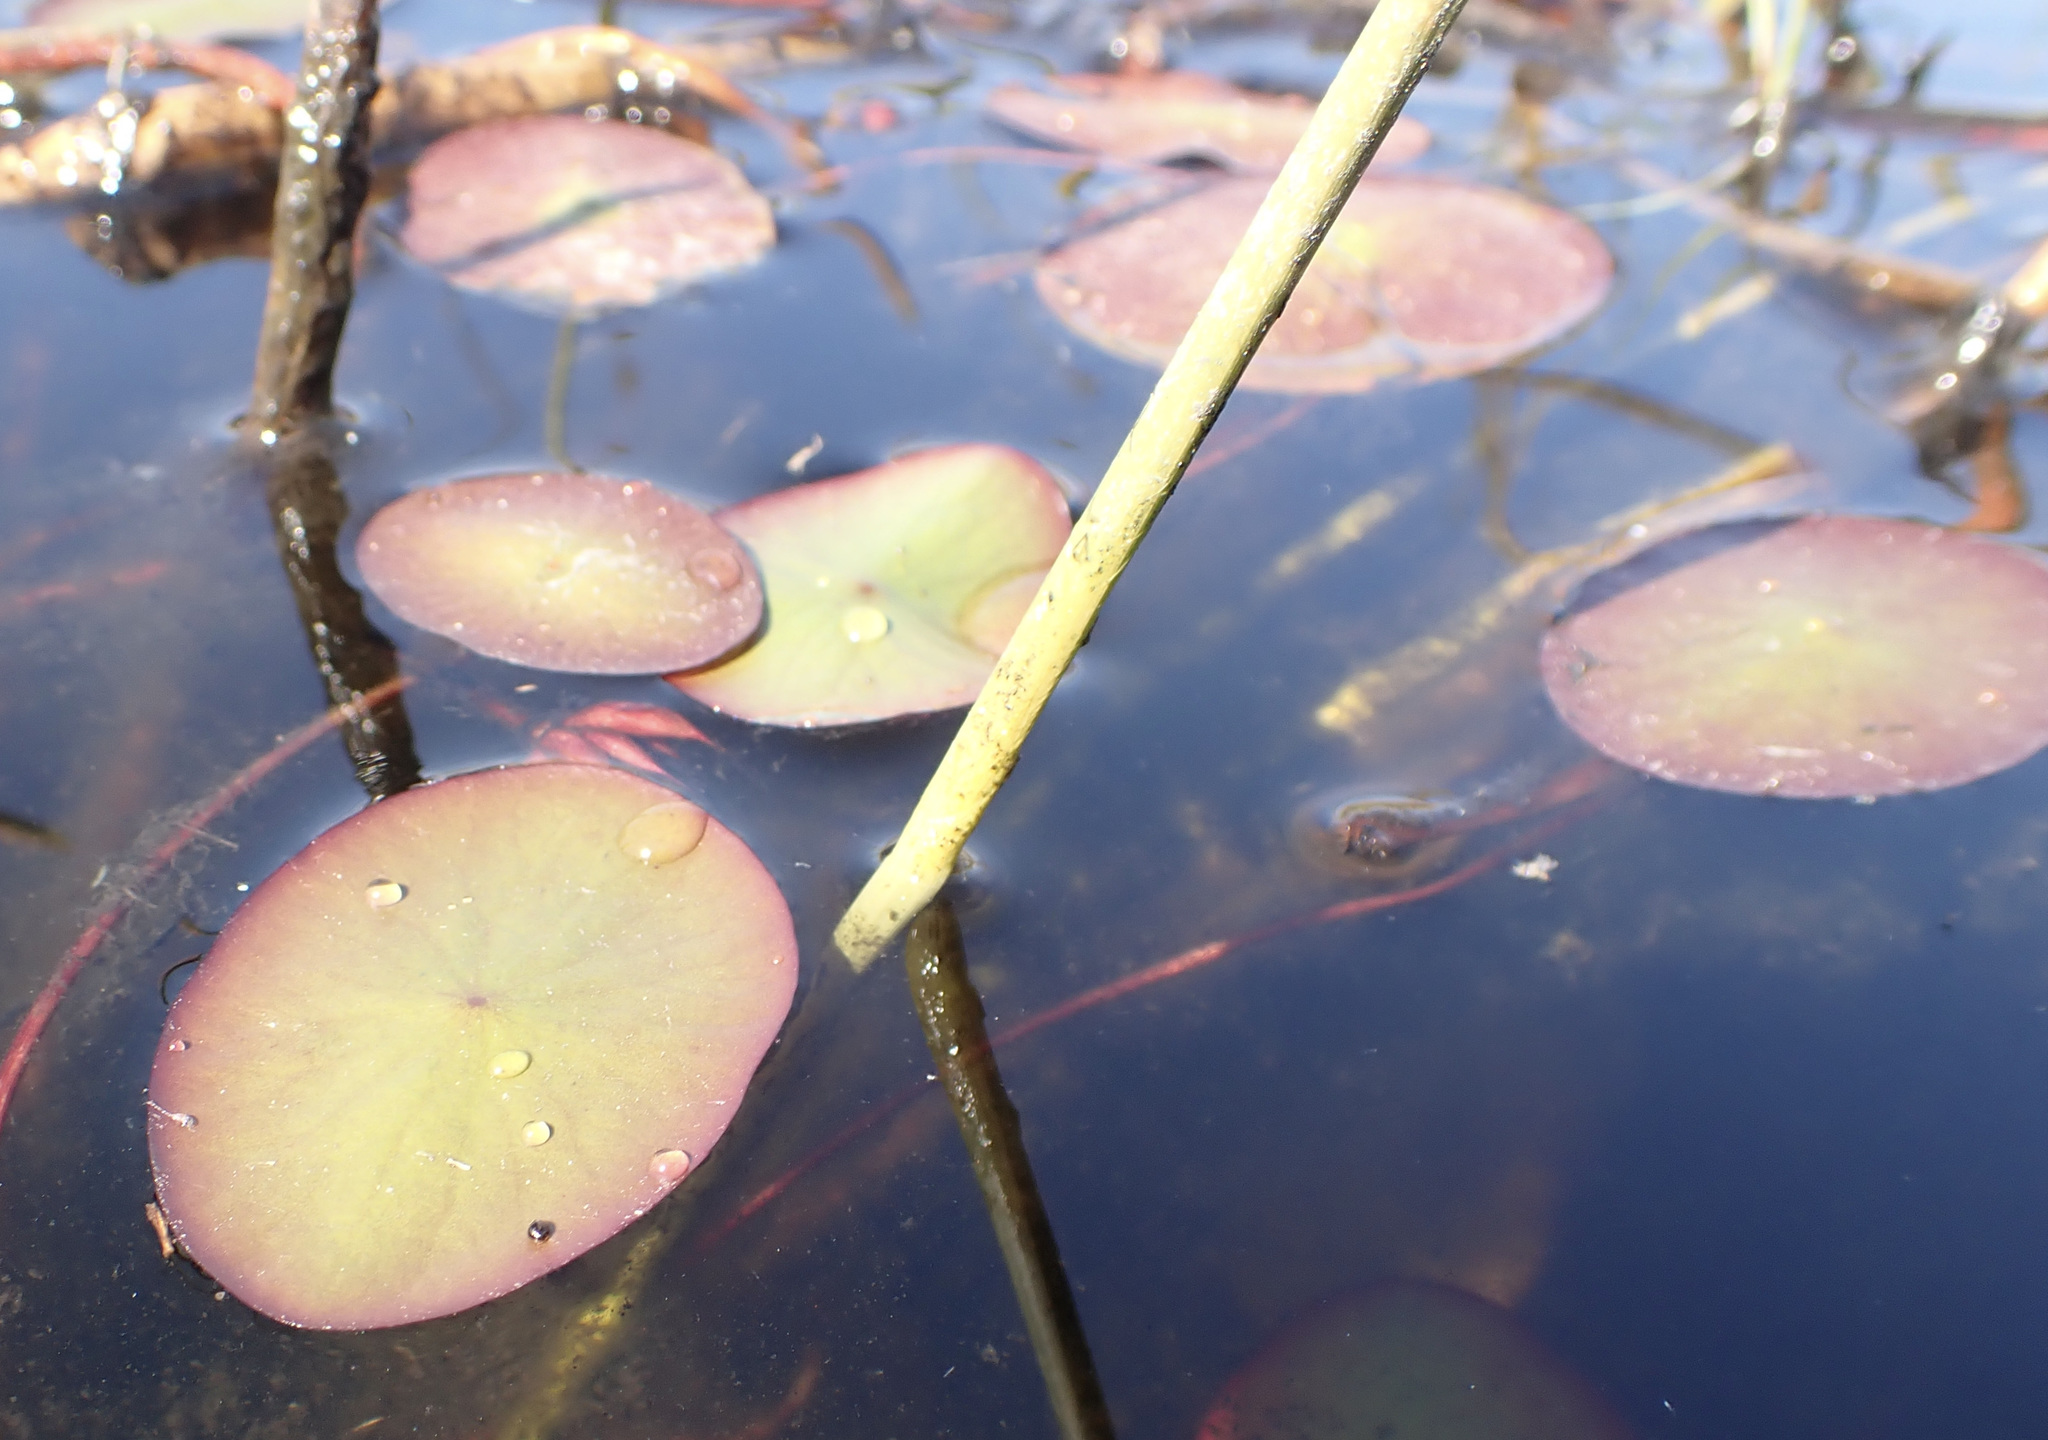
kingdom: Plantae
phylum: Tracheophyta
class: Magnoliopsida
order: Nymphaeales
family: Cabombaceae
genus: Brasenia
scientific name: Brasenia schreberi
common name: Water-shield
